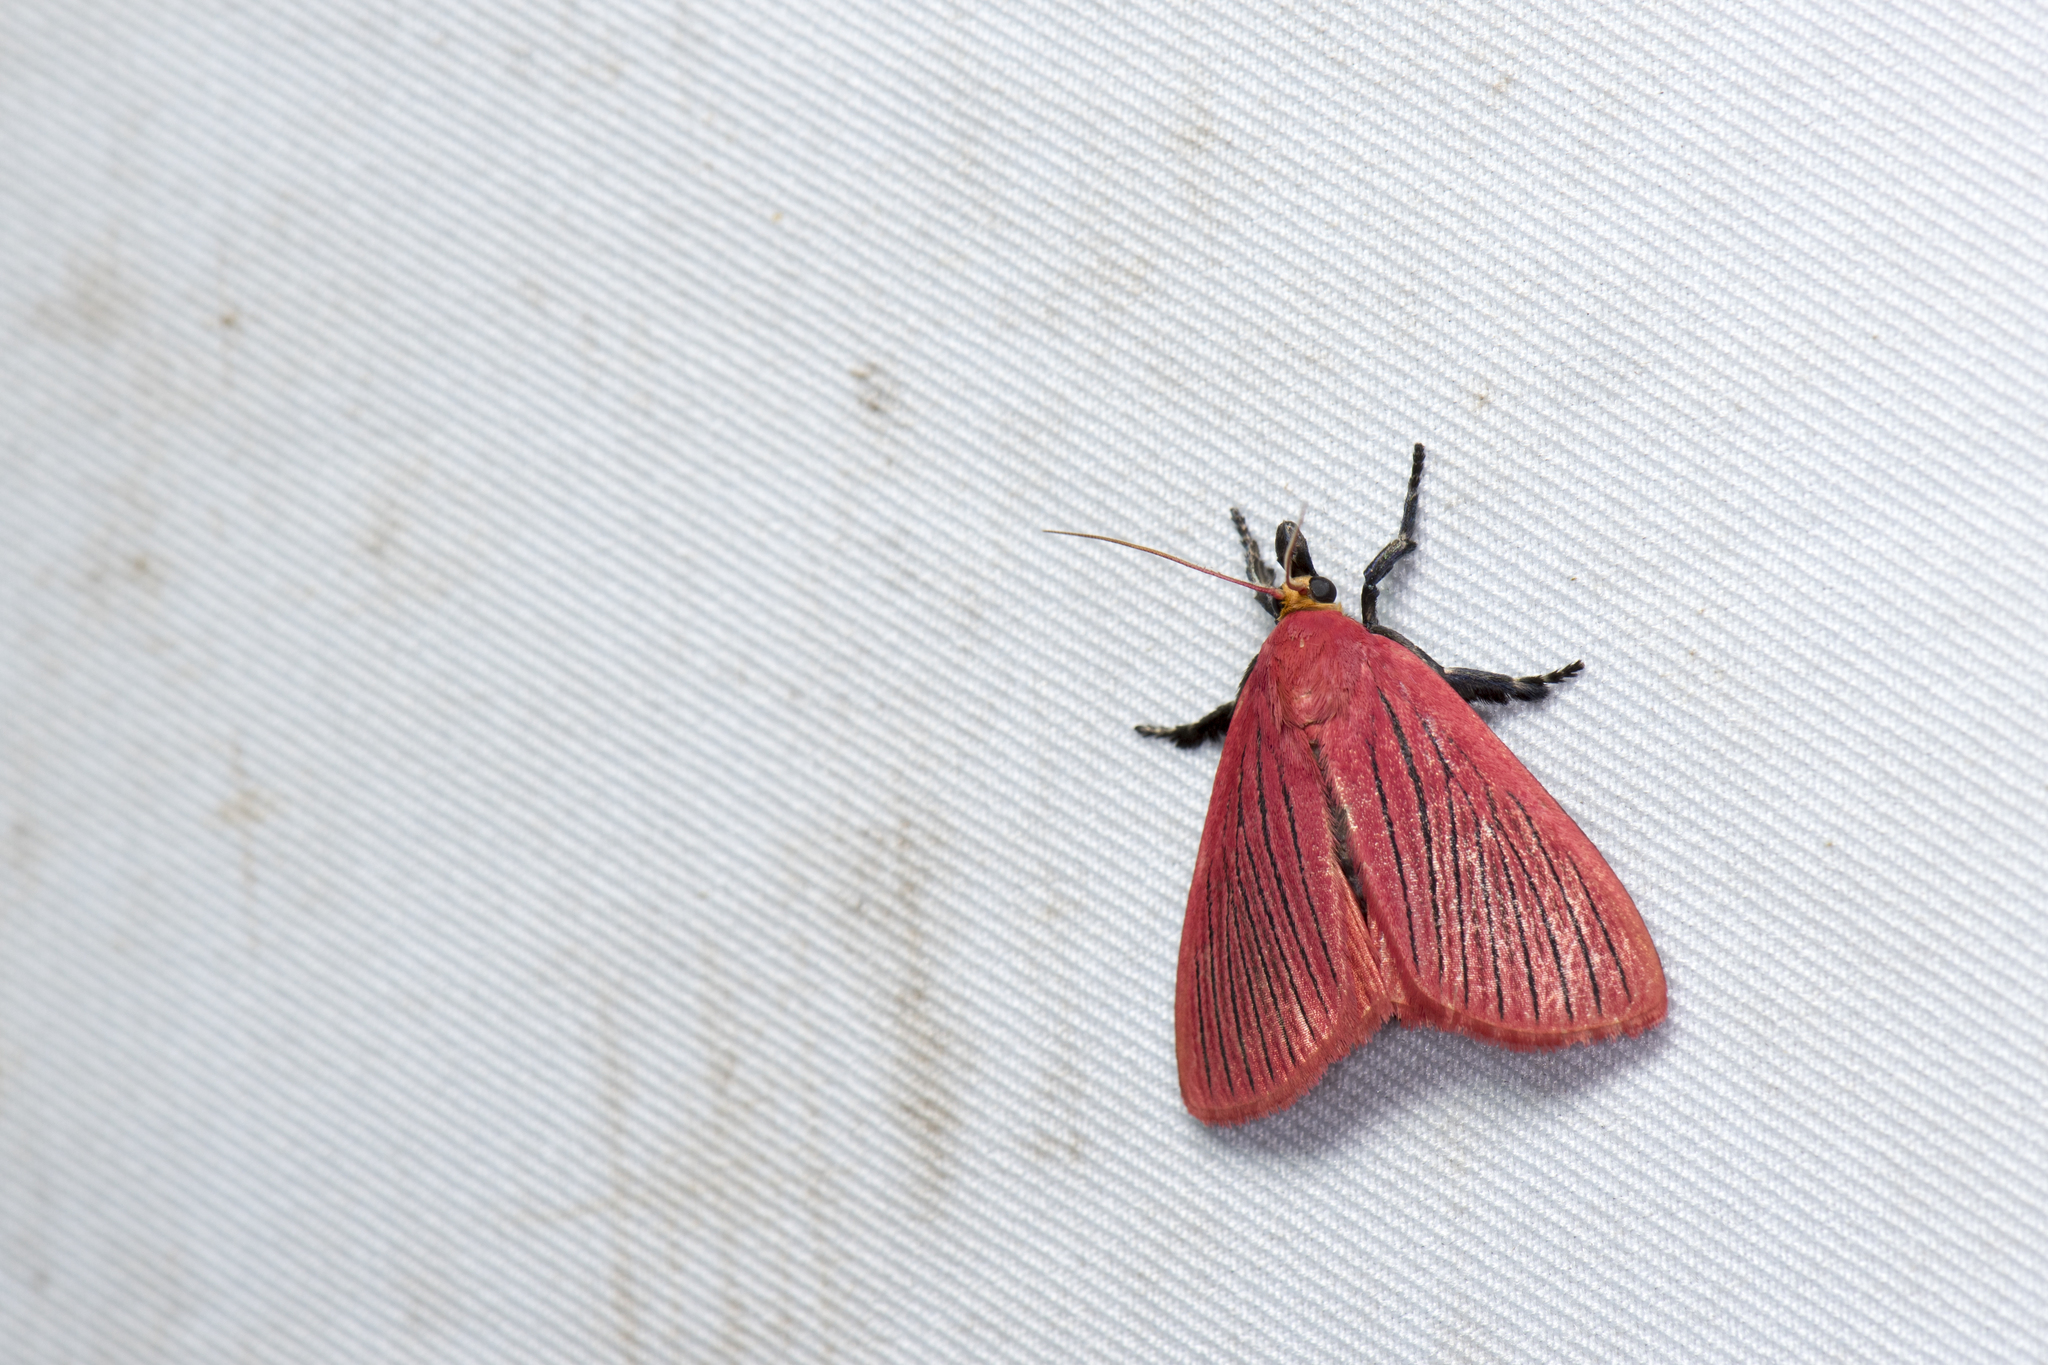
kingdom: Animalia
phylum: Arthropoda
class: Insecta
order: Lepidoptera
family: Pyralidae
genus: Arctioblepsis
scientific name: Arctioblepsis rubida
